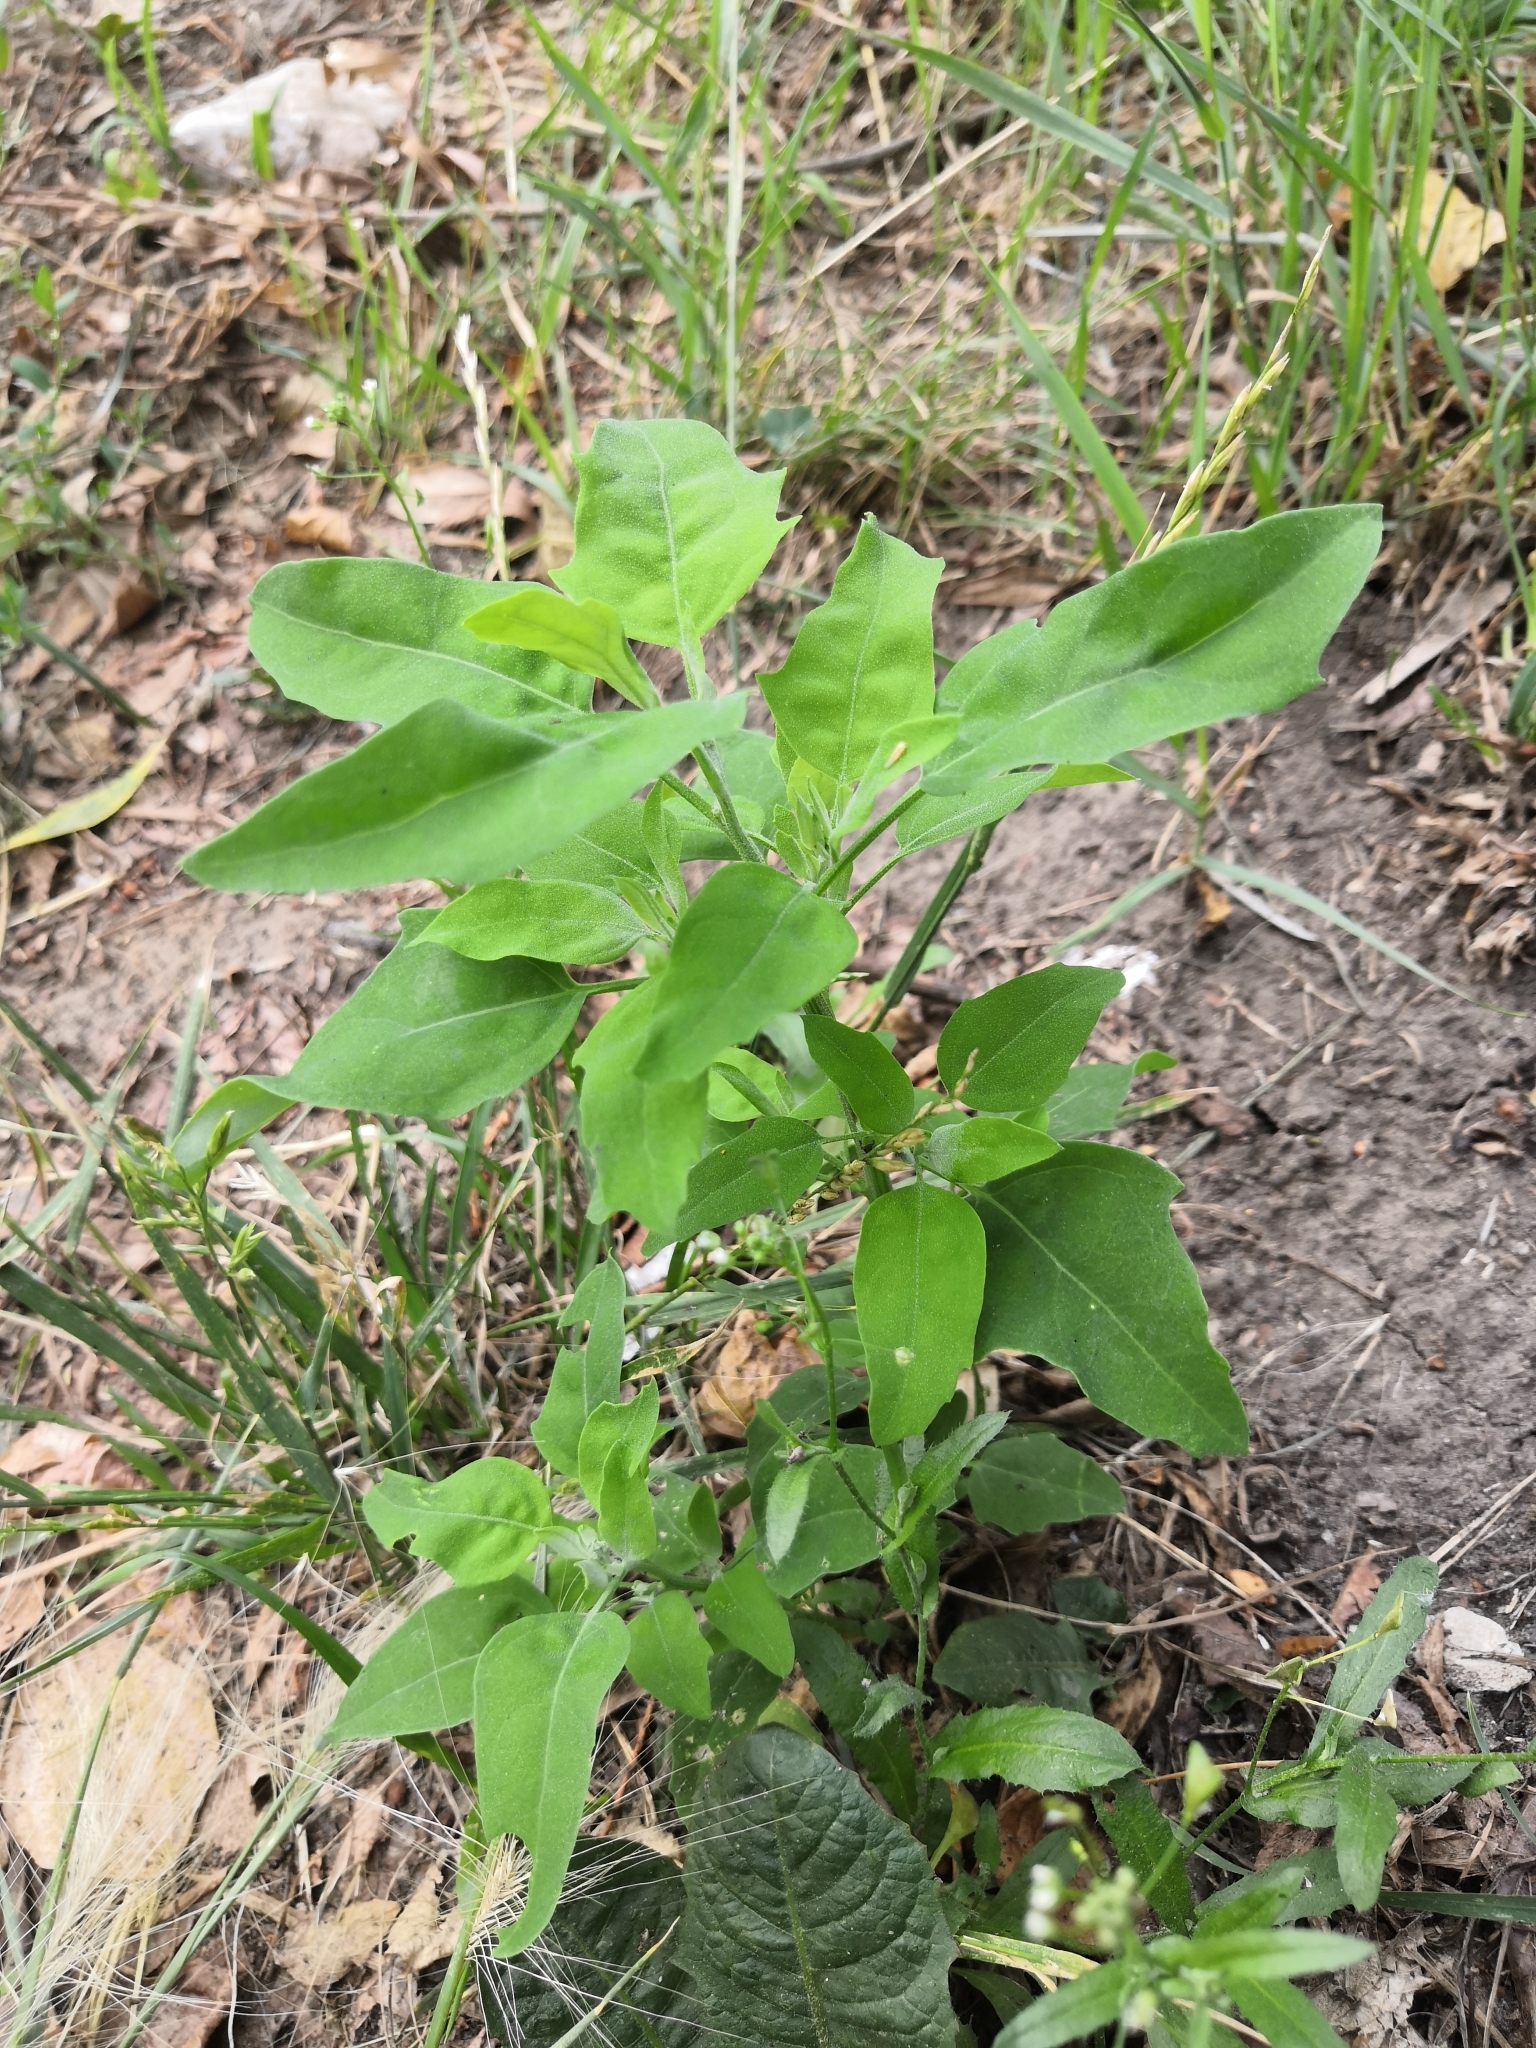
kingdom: Plantae
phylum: Tracheophyta
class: Magnoliopsida
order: Caryophyllales
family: Amaranthaceae
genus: Chenopodium
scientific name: Chenopodium album
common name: Fat-hen
